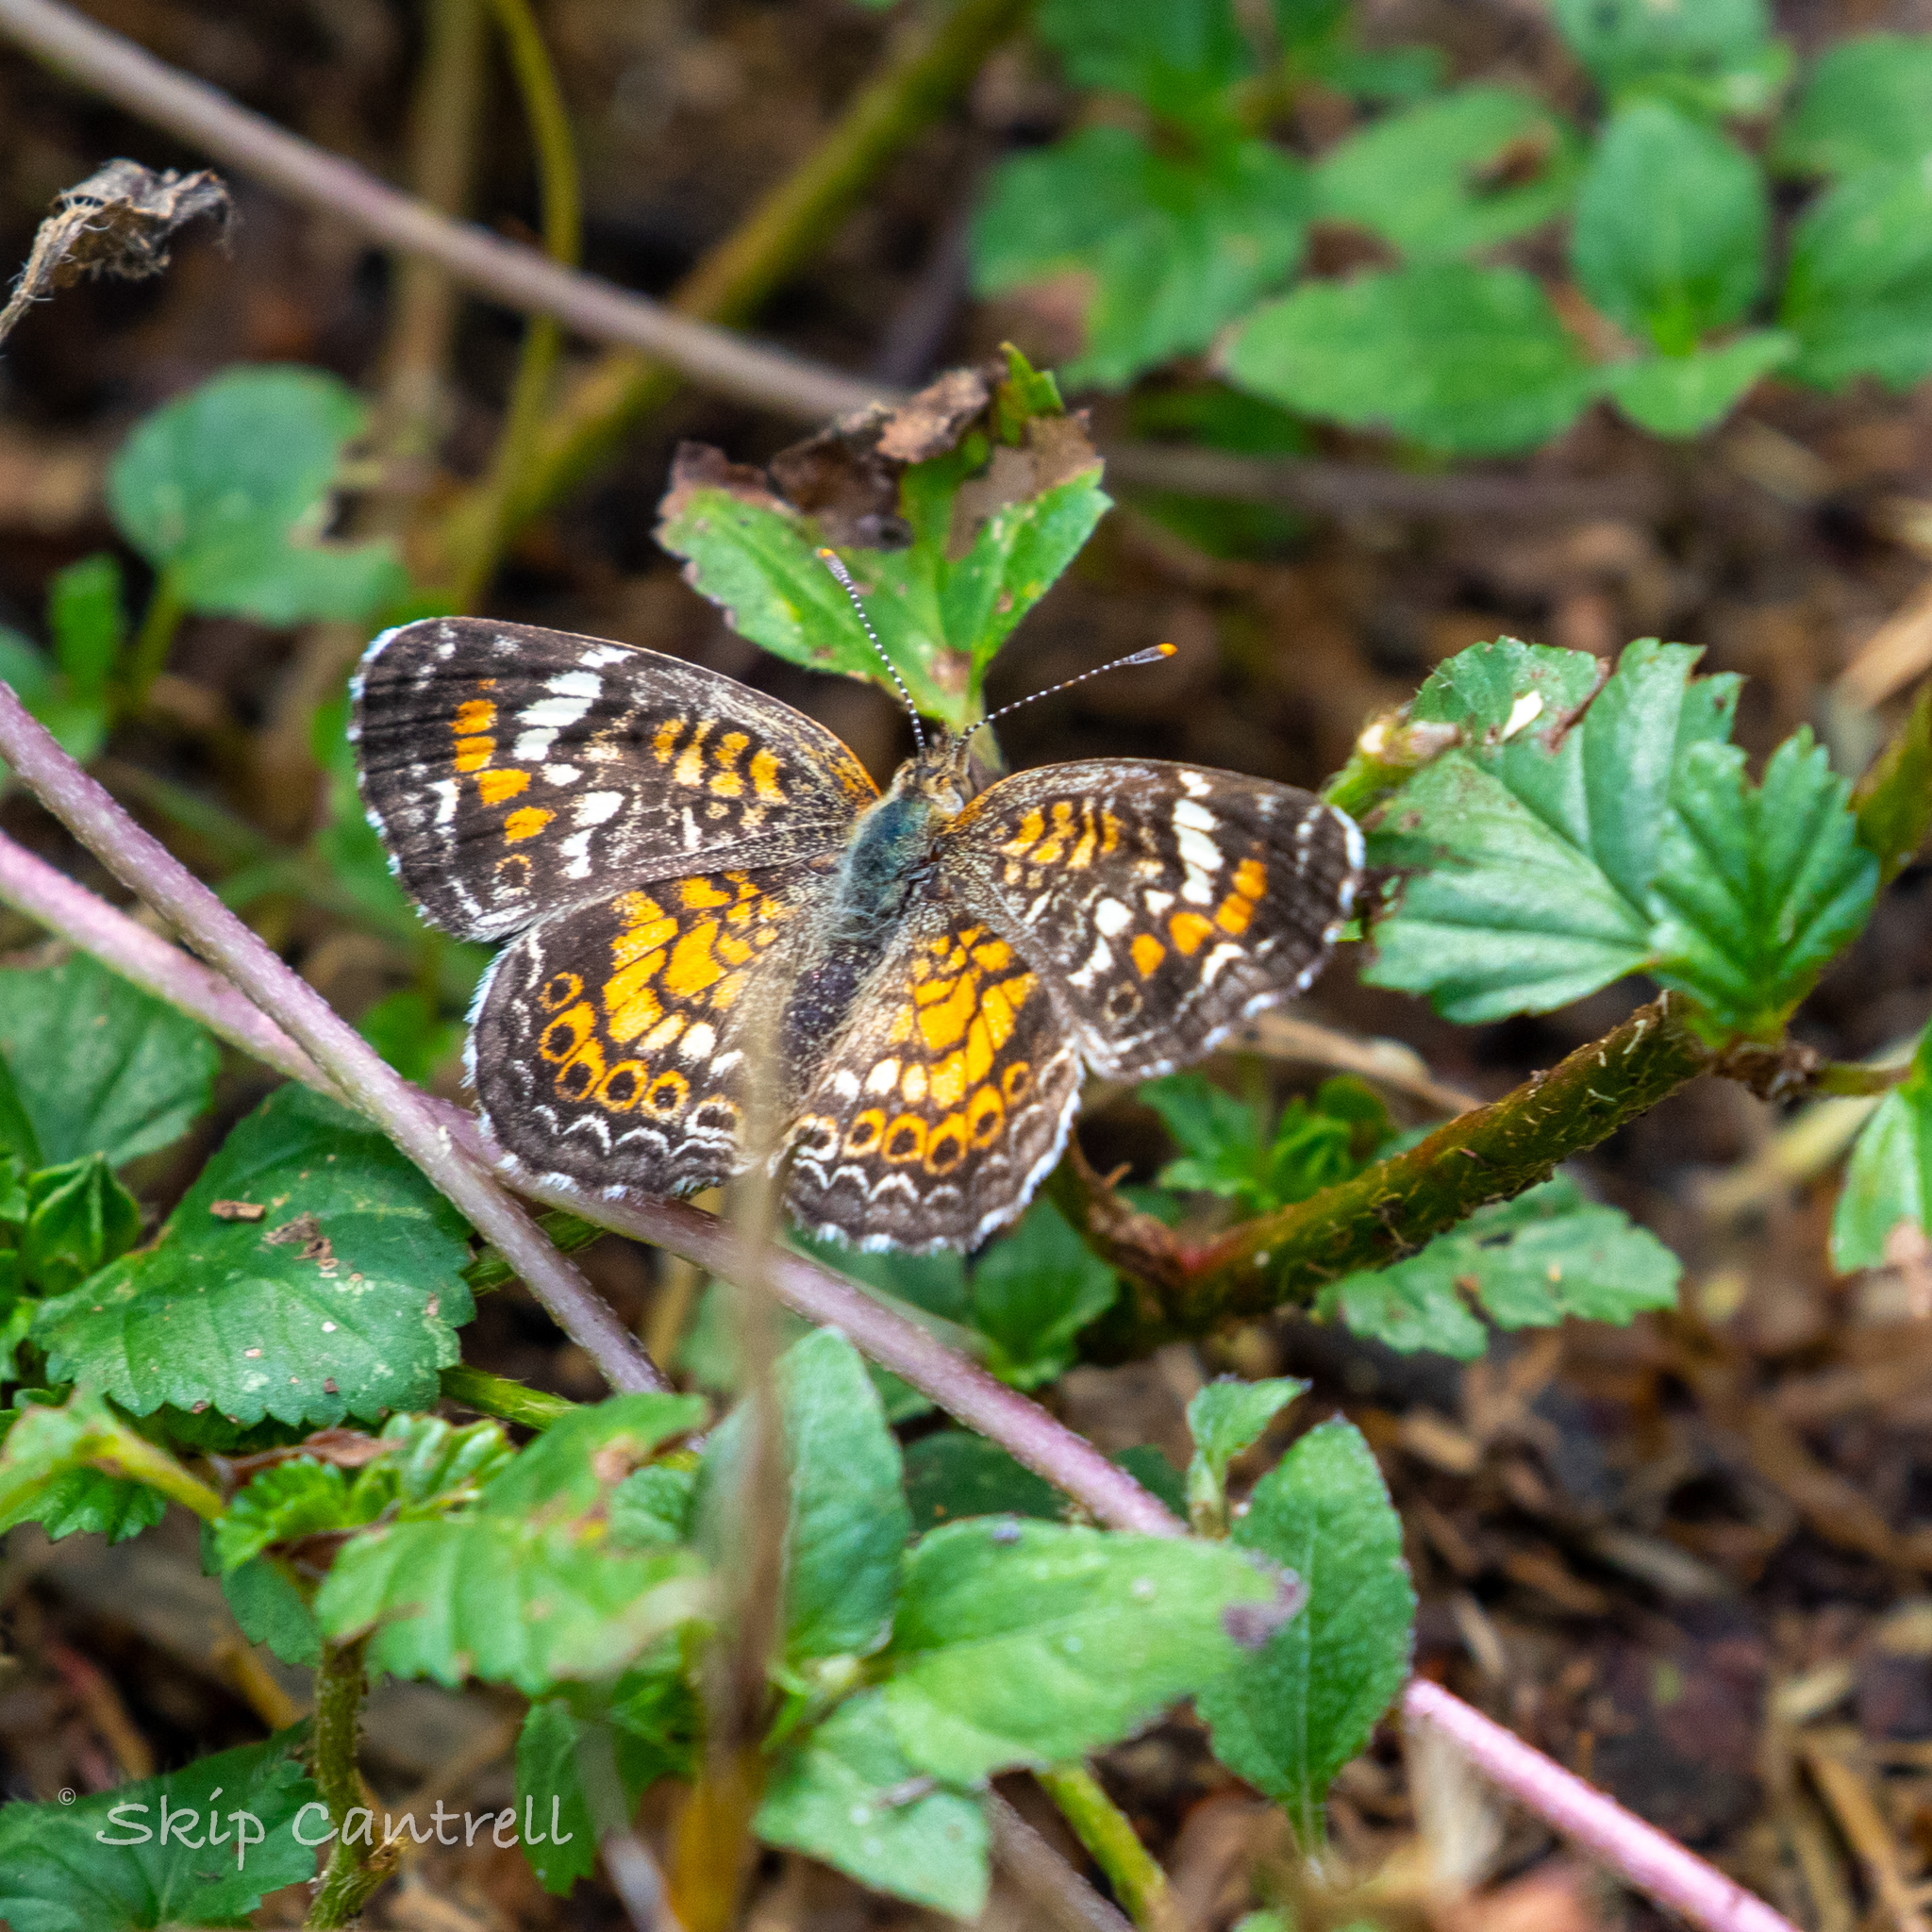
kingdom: Animalia
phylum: Arthropoda
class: Insecta
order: Lepidoptera
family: Nymphalidae
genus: Phyciodes
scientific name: Phyciodes phaon
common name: Phaon crescent
